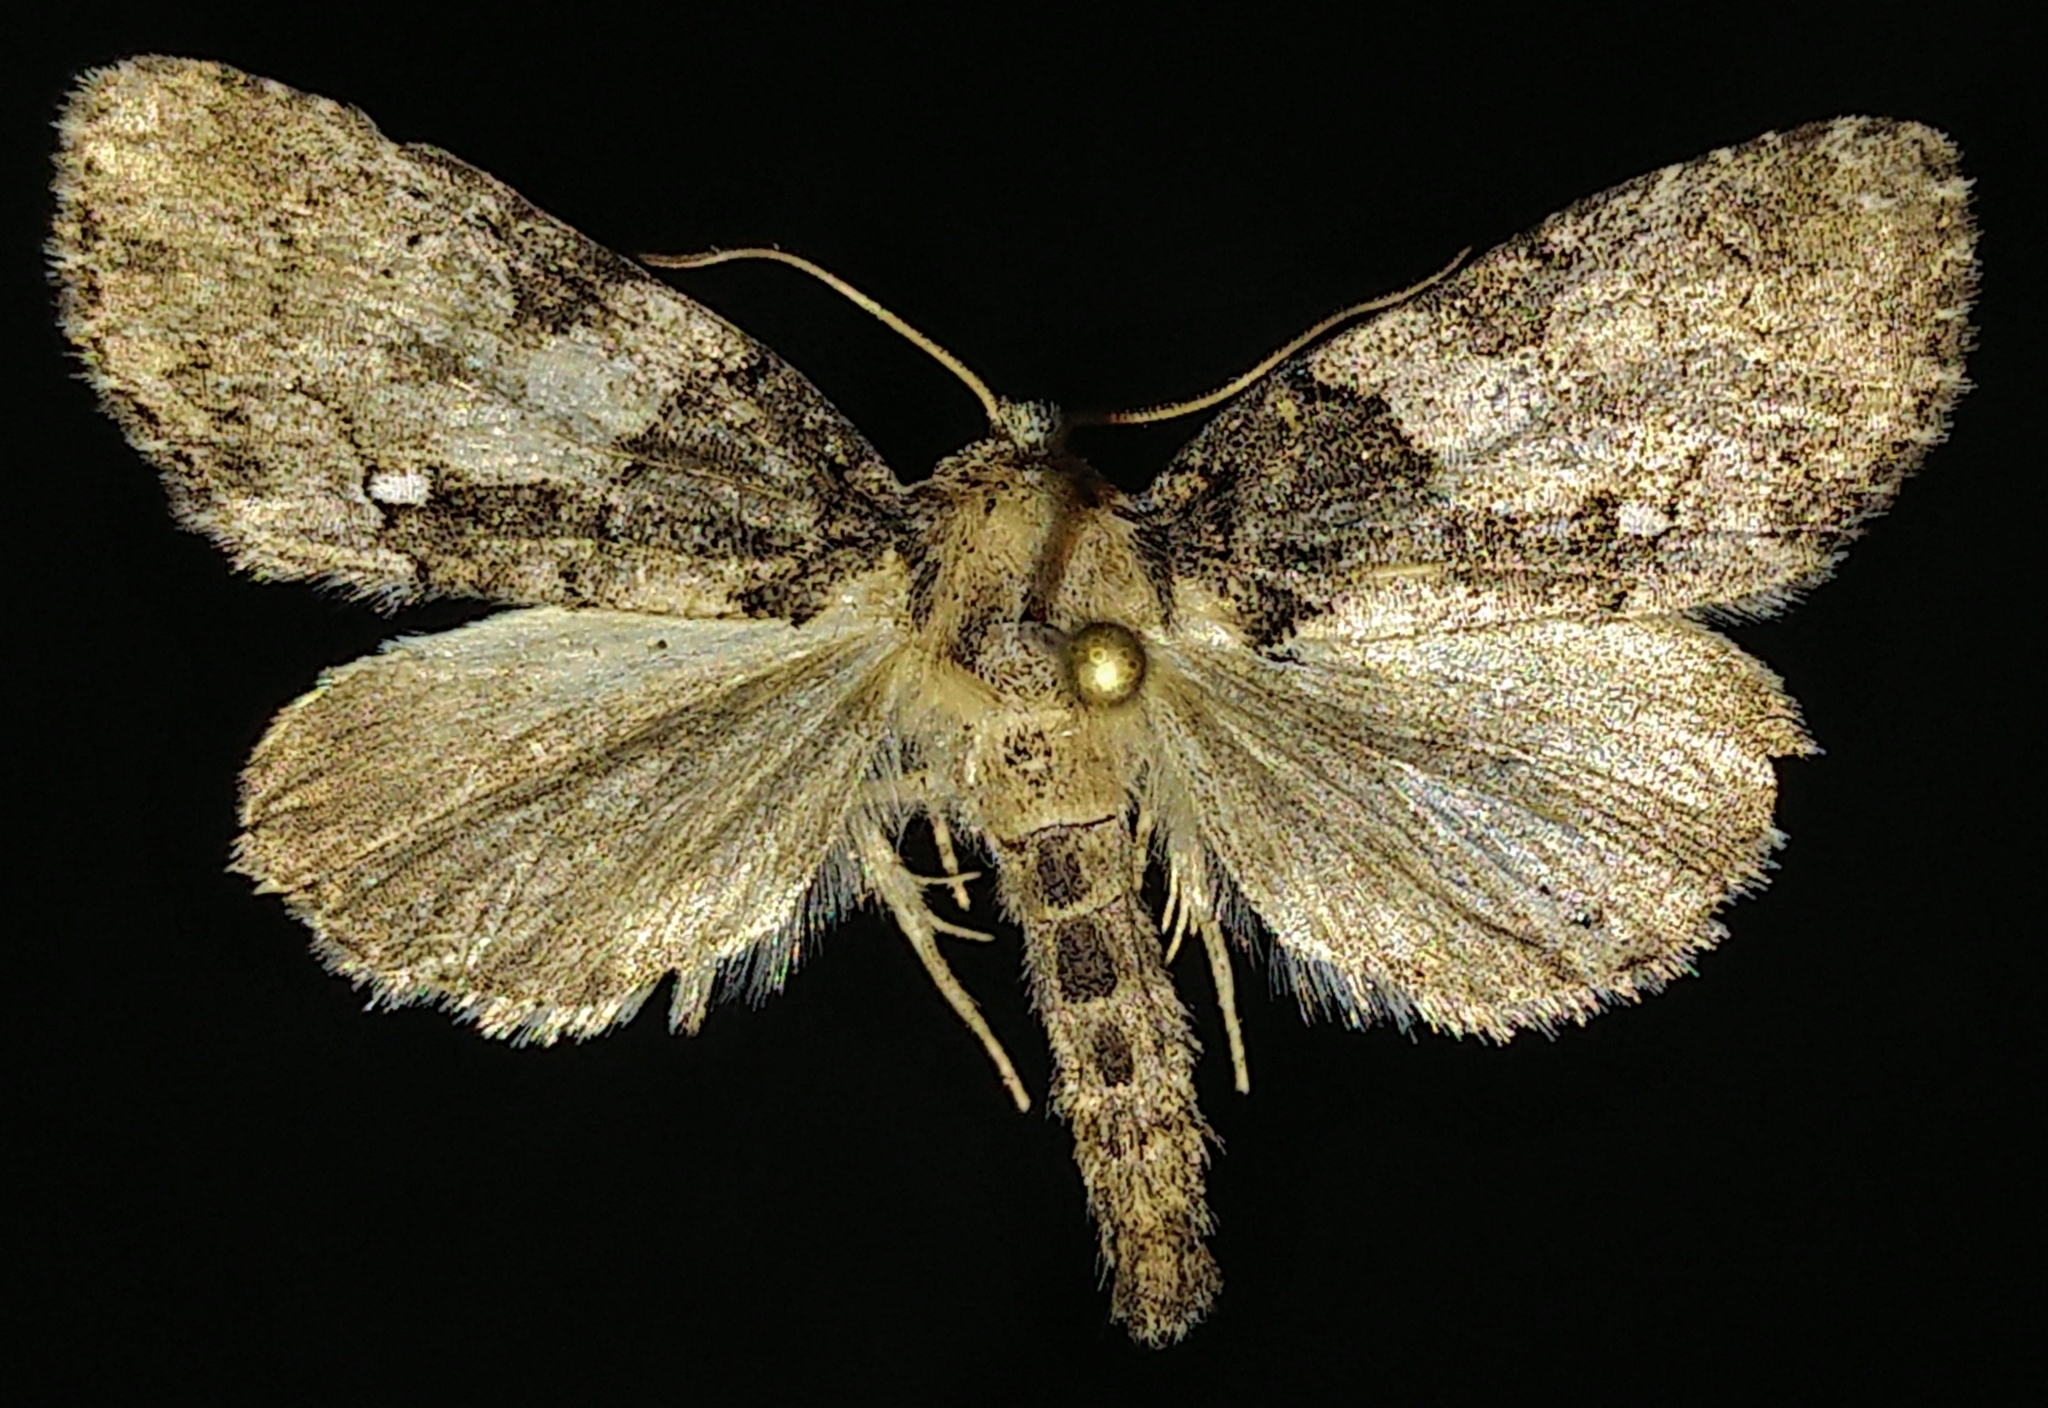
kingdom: Animalia
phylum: Arthropoda
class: Insecta
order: Lepidoptera
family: Noctuidae
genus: Chytonix
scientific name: Chytonix palliatricula
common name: Cloaked marvel
